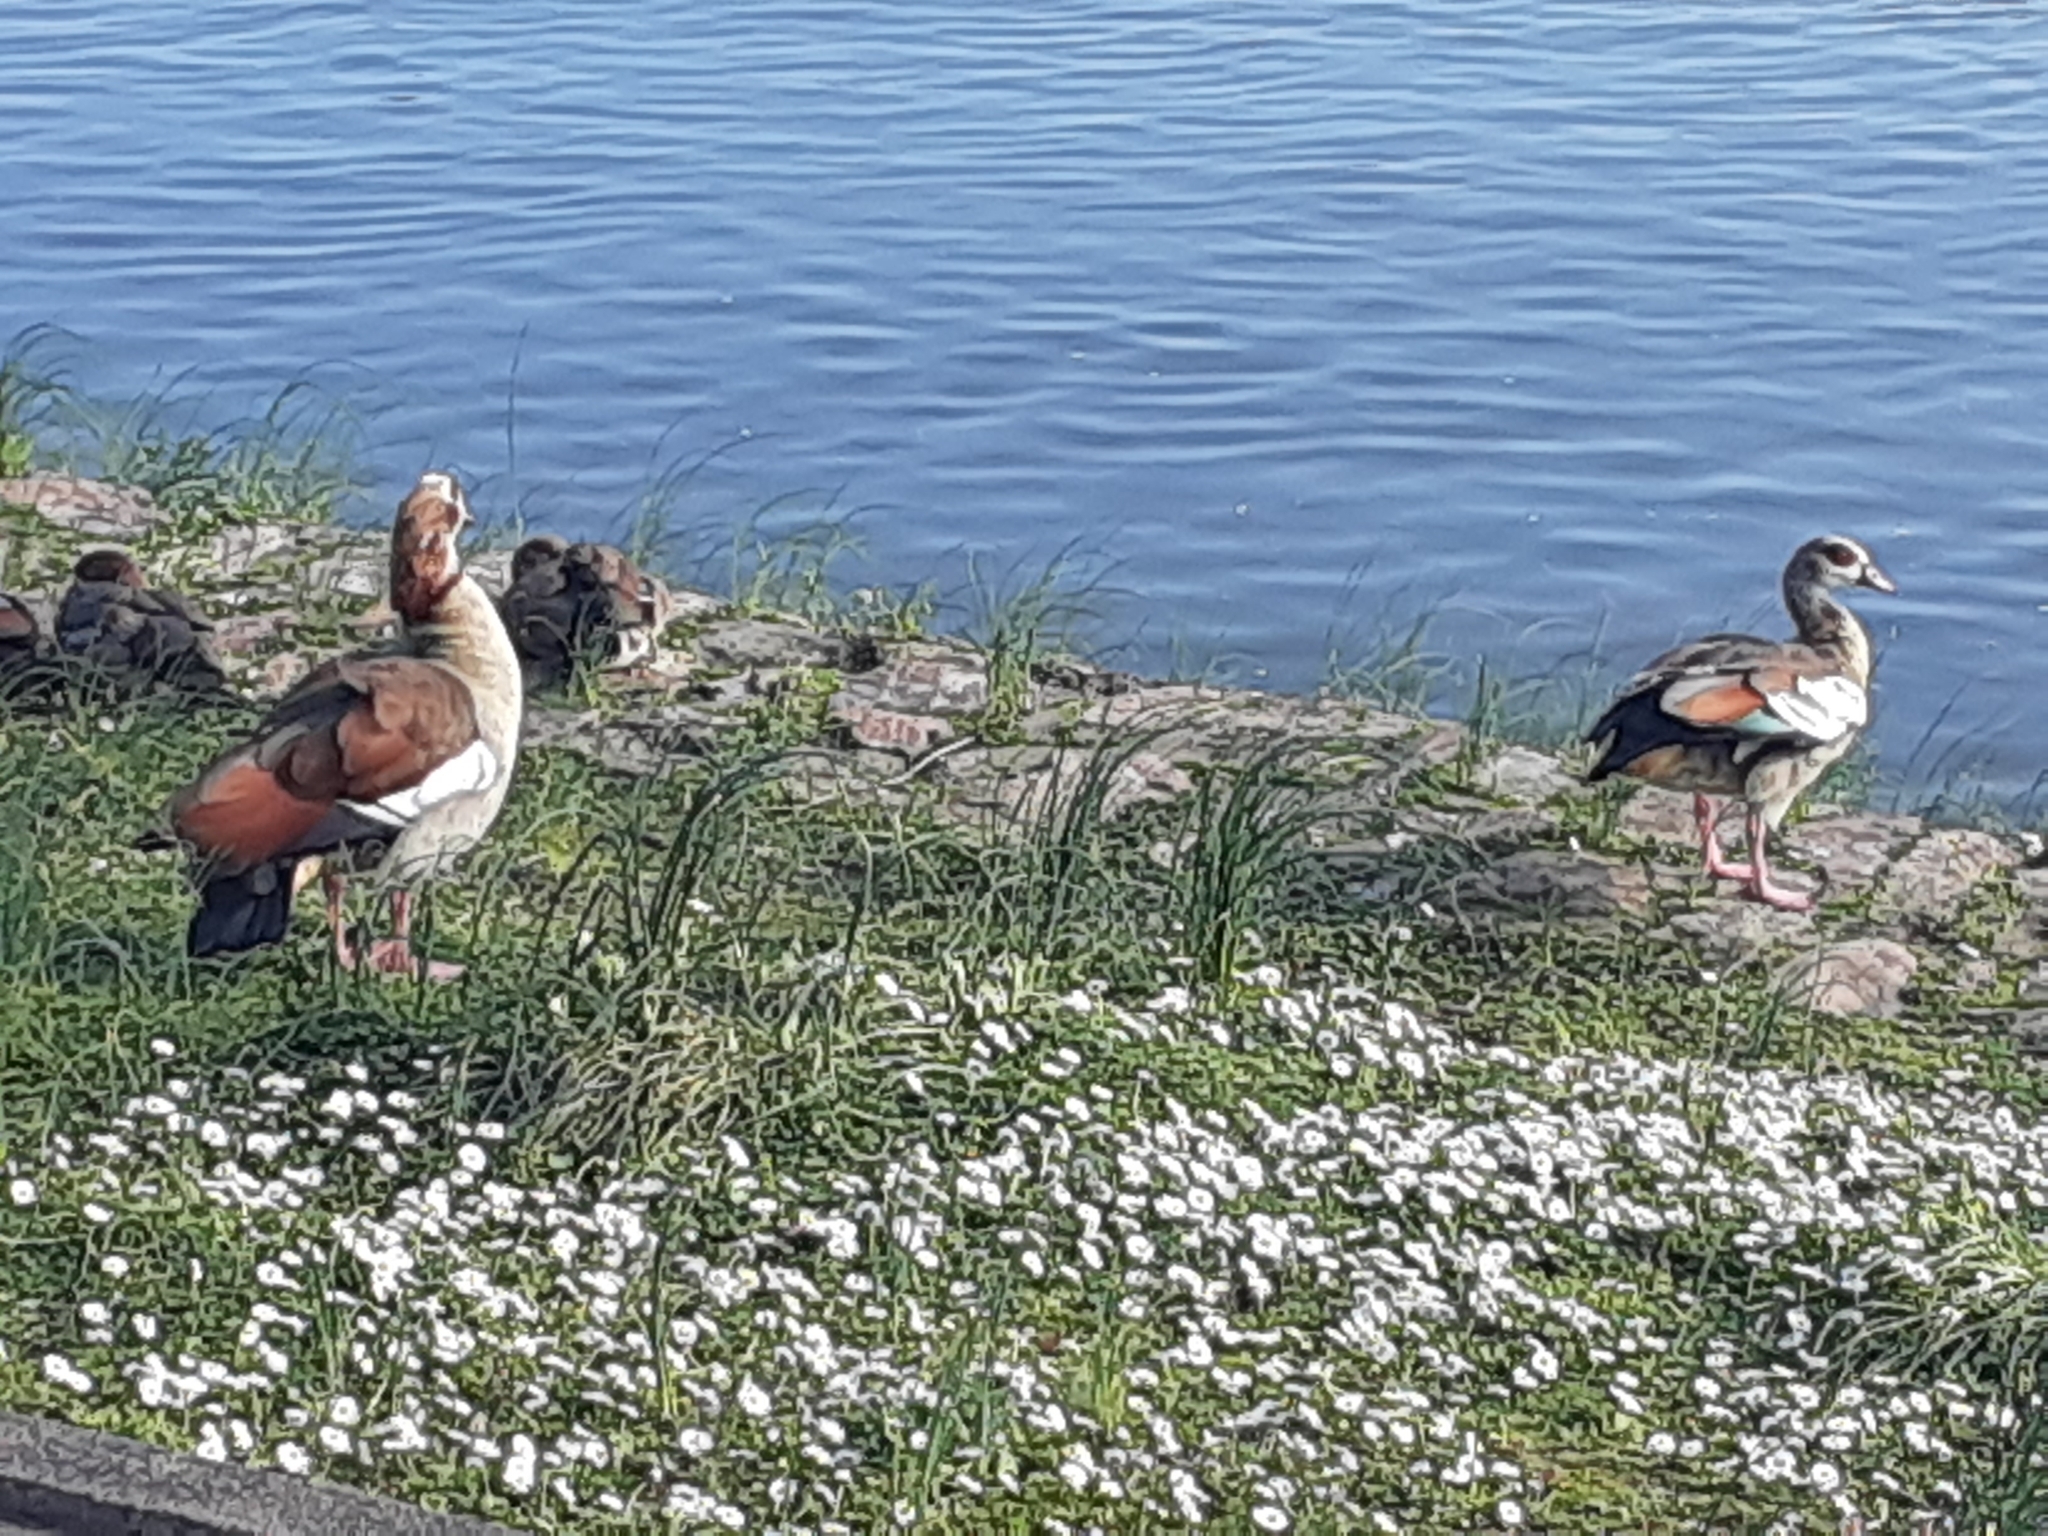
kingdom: Animalia
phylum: Chordata
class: Aves
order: Anseriformes
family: Anatidae
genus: Alopochen
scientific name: Alopochen aegyptiaca
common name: Egyptian goose
